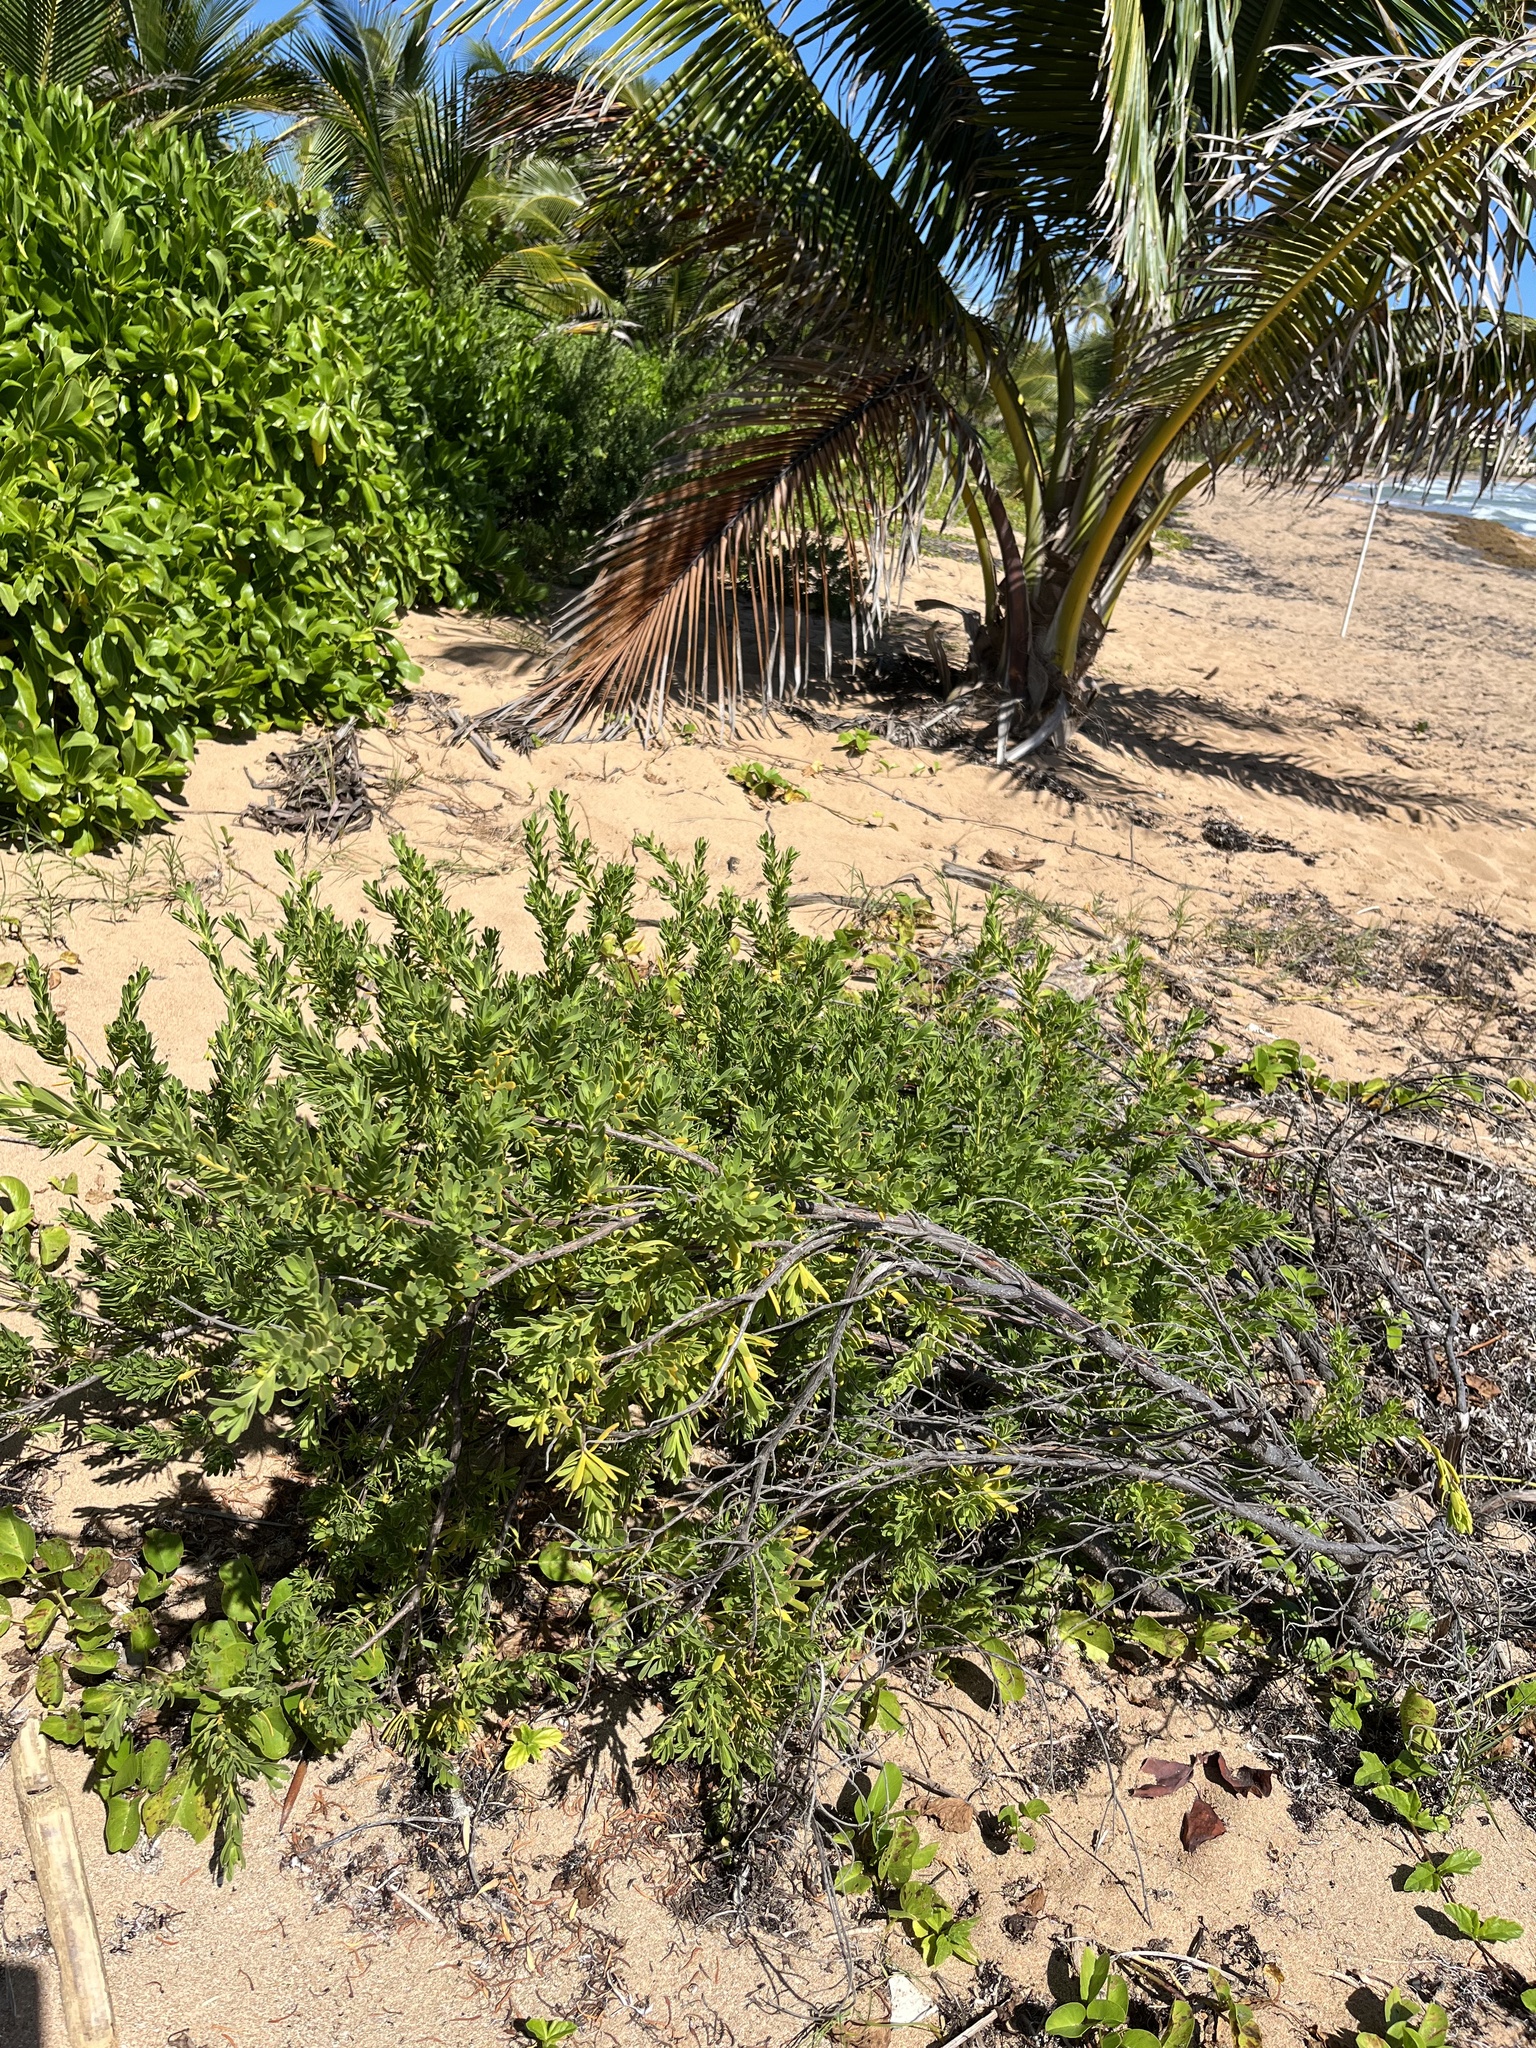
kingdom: Plantae
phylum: Tracheophyta
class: Magnoliopsida
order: Fabales
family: Surianaceae
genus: Suriana
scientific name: Suriana maritima
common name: Bay-cedar
